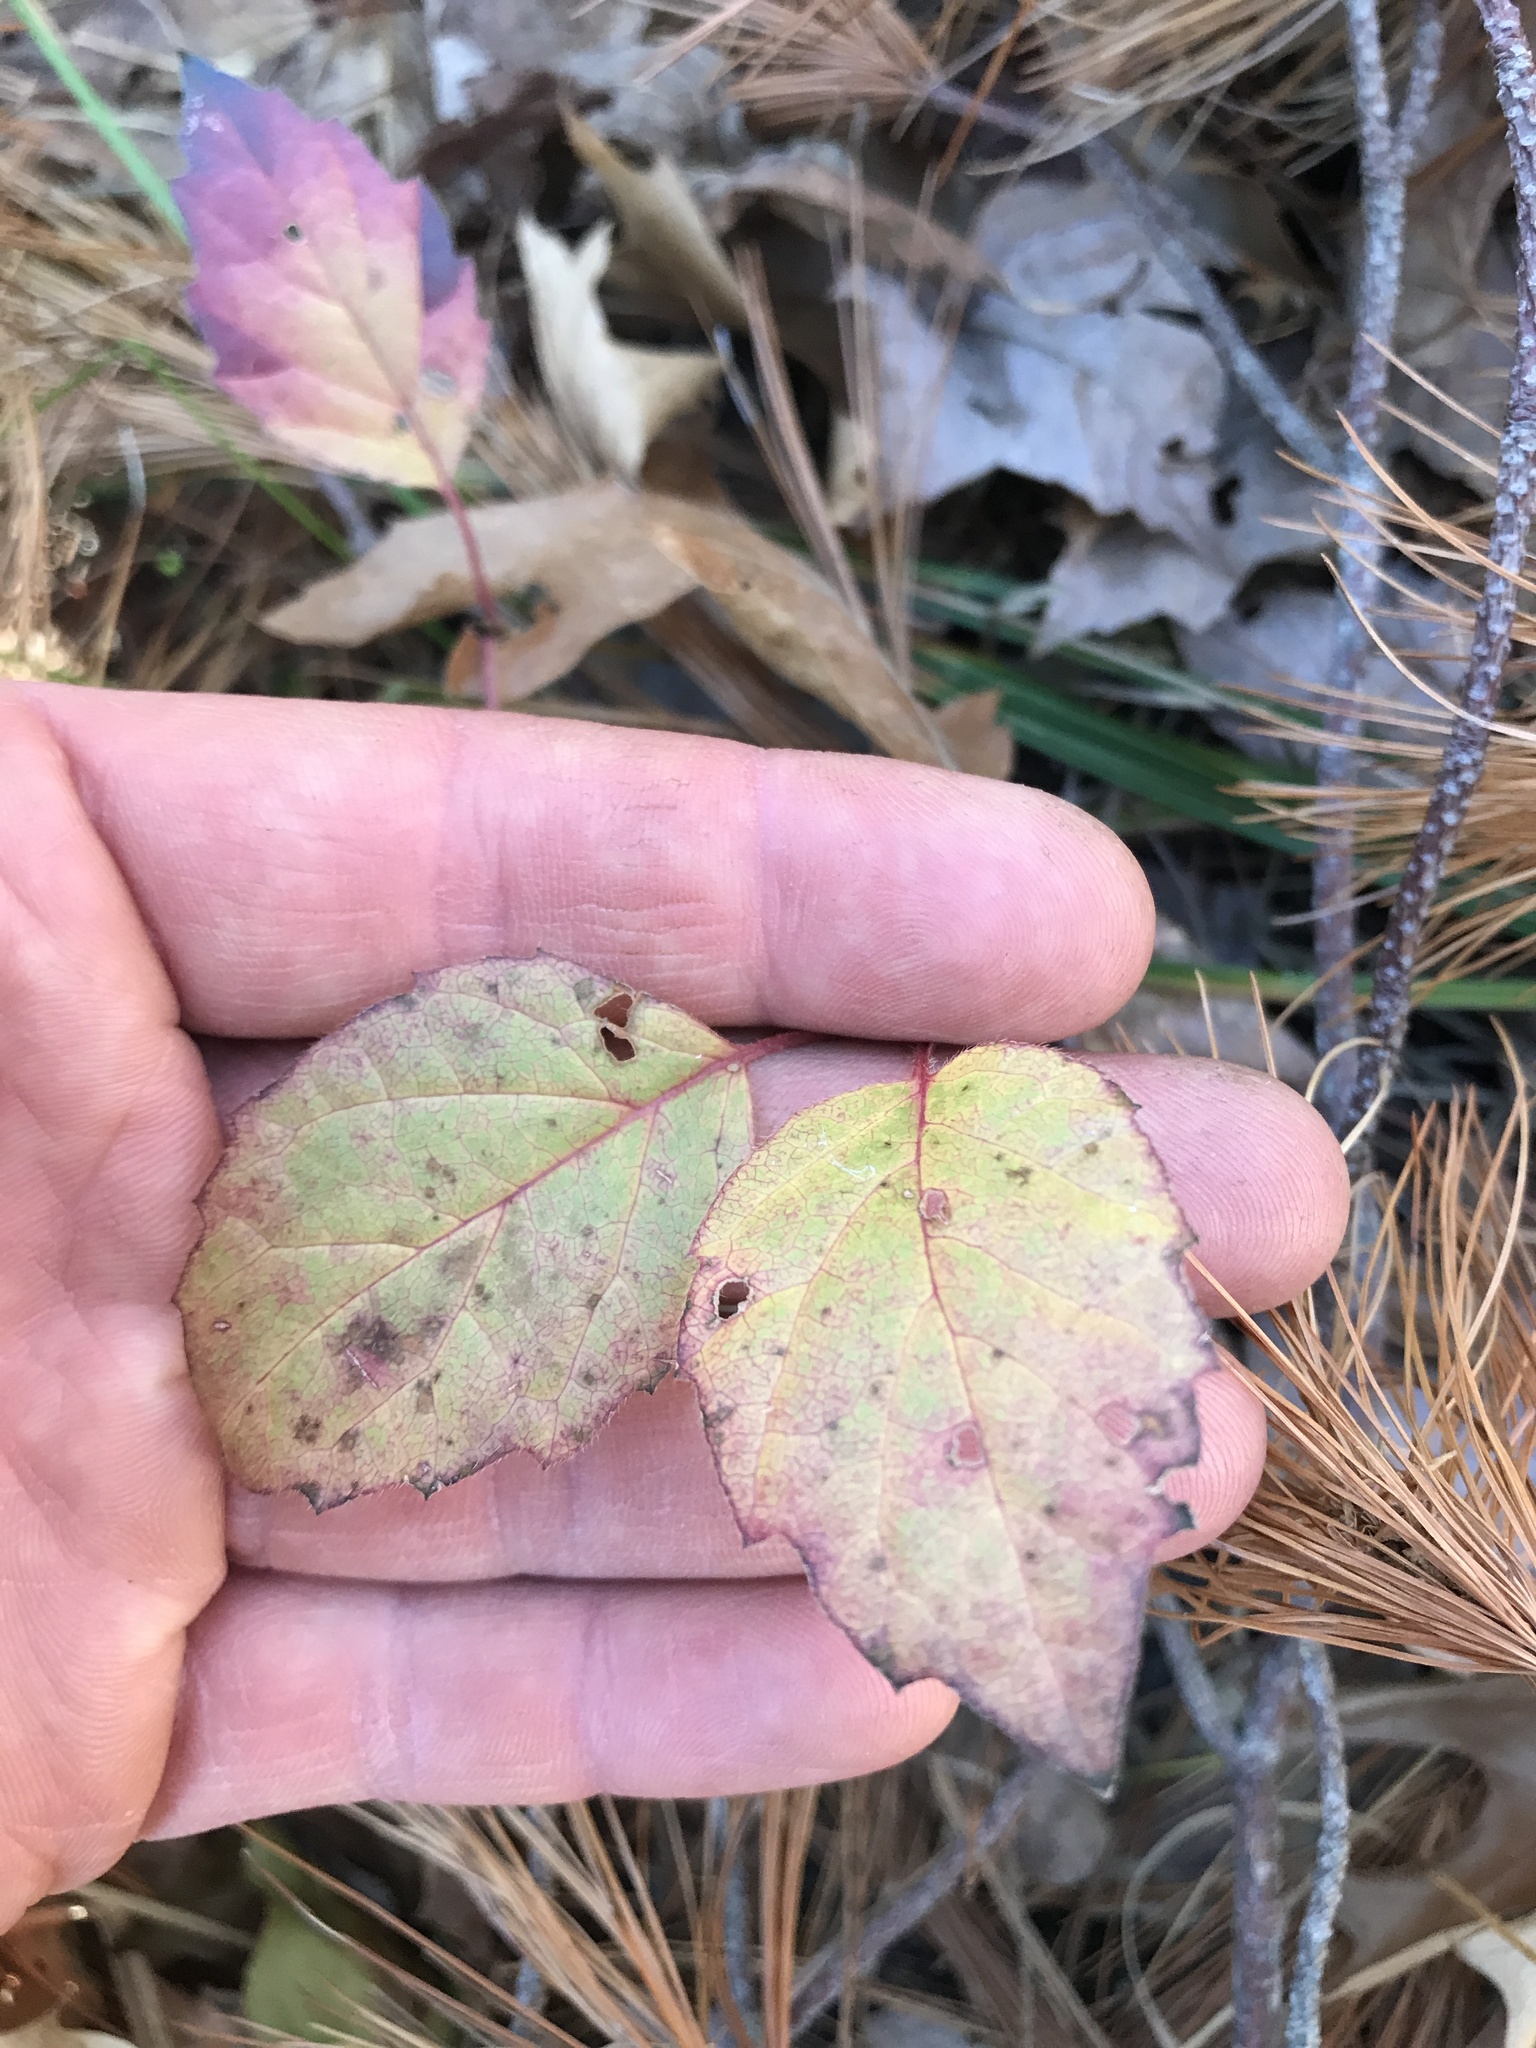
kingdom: Plantae
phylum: Tracheophyta
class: Magnoliopsida
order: Dipsacales
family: Viburnaceae
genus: Viburnum
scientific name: Viburnum rafinesqueanum
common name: Downy arrow-wood
